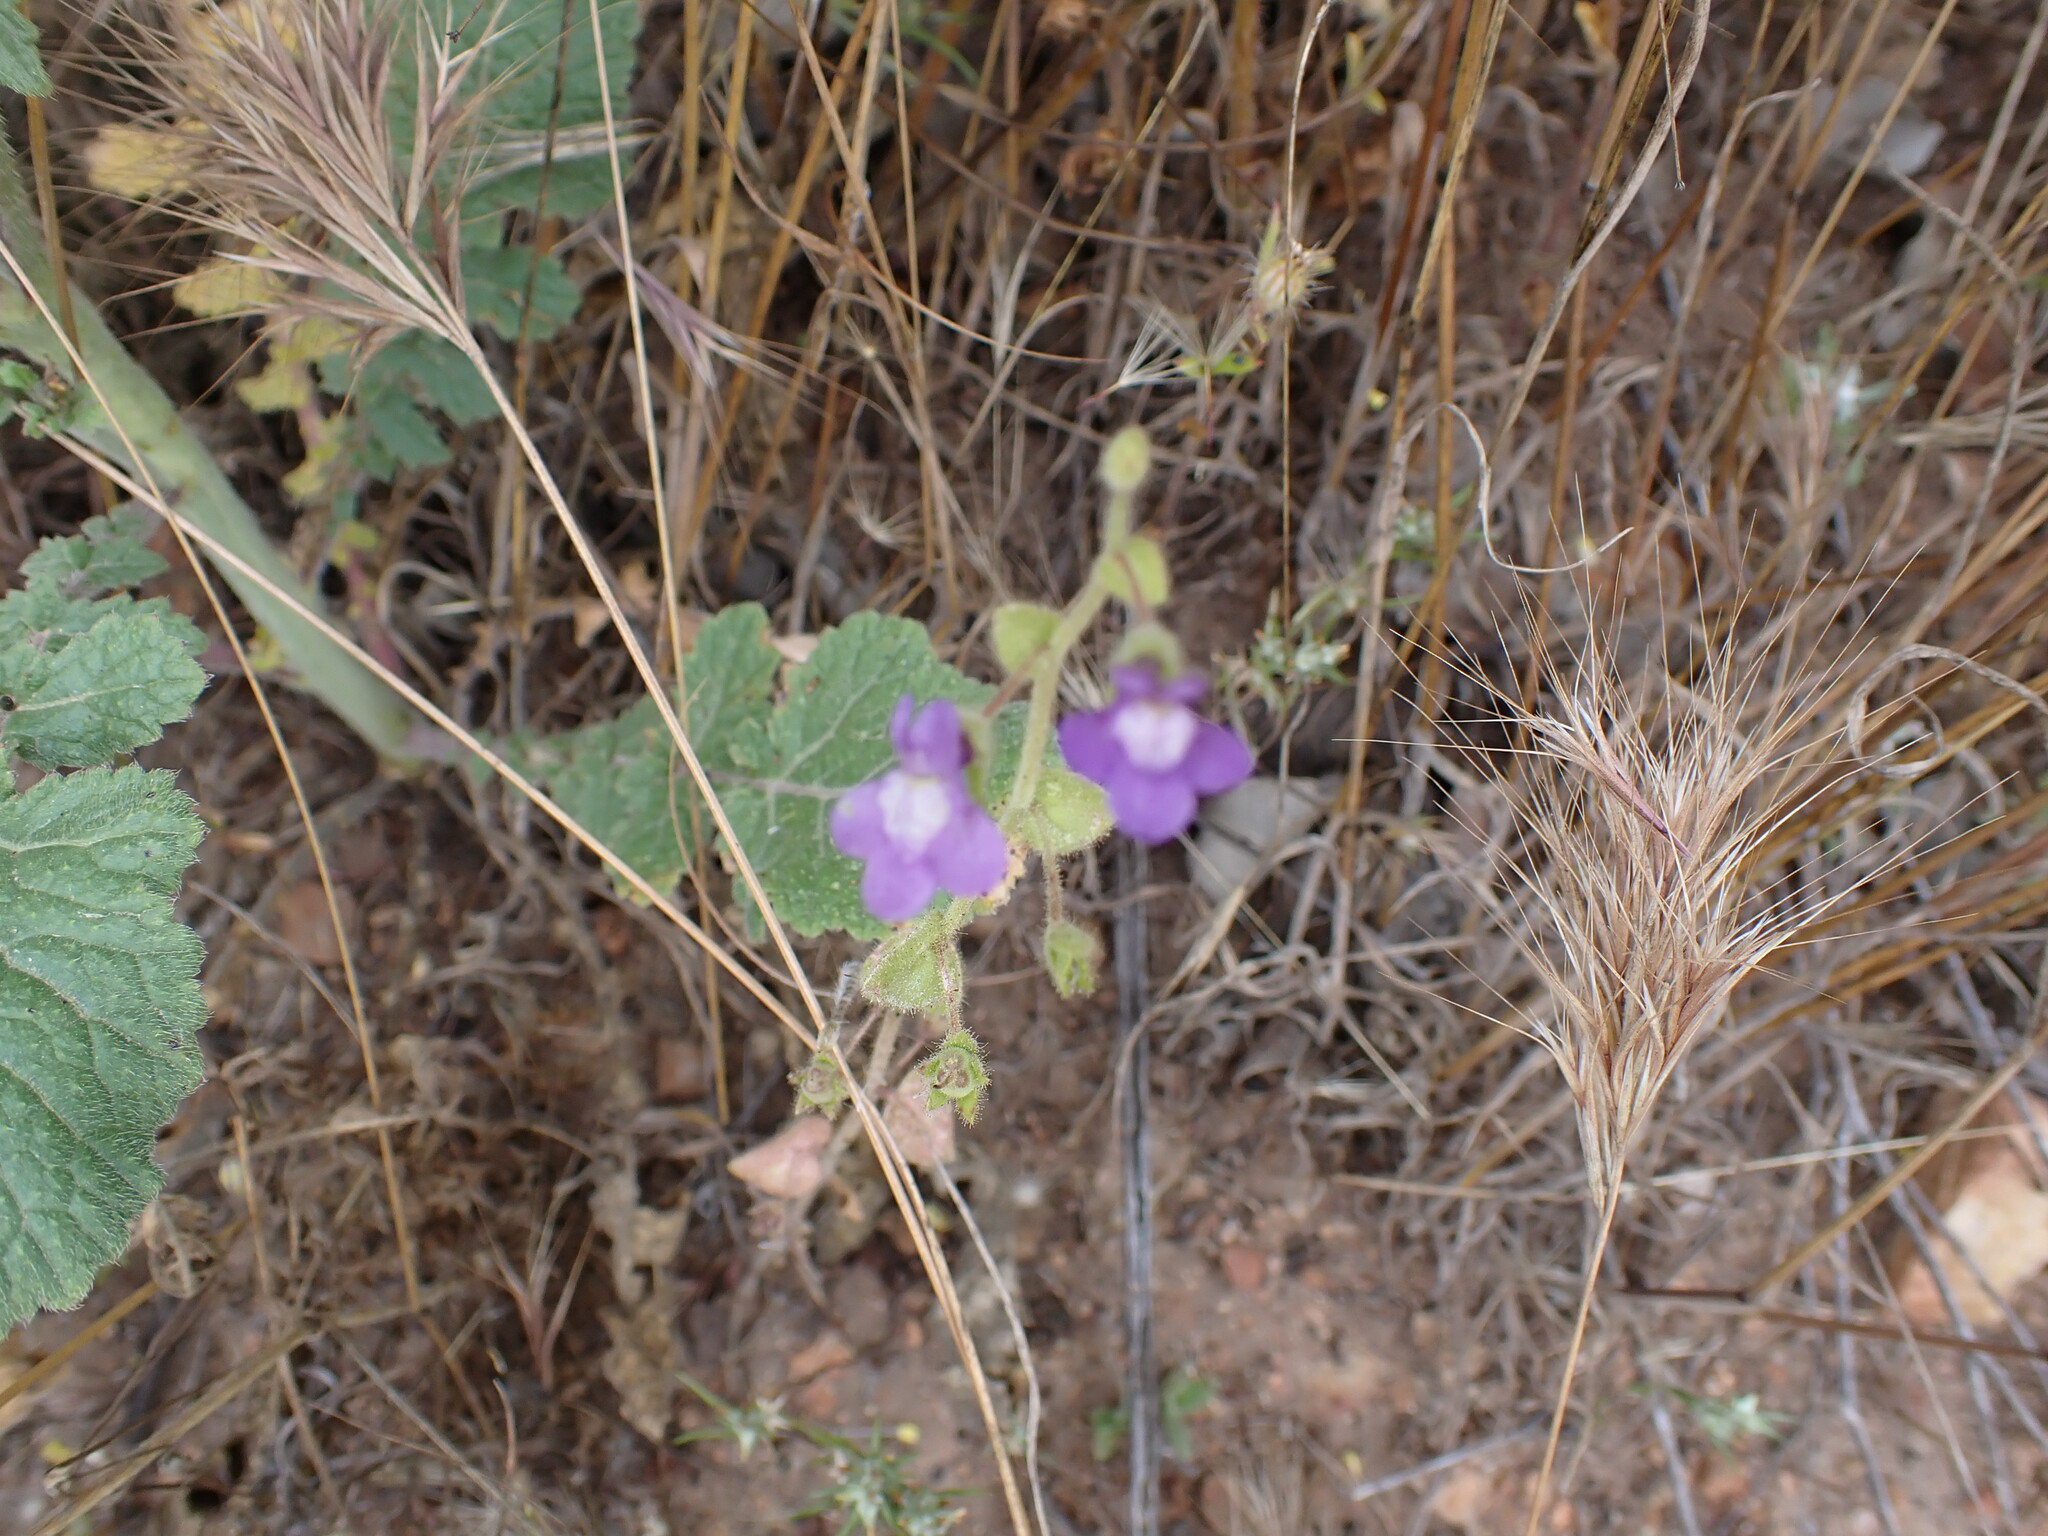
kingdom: Plantae
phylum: Tracheophyta
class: Magnoliopsida
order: Lamiales
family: Plantaginaceae
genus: Sairocarpus
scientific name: Sairocarpus nuttallianus
